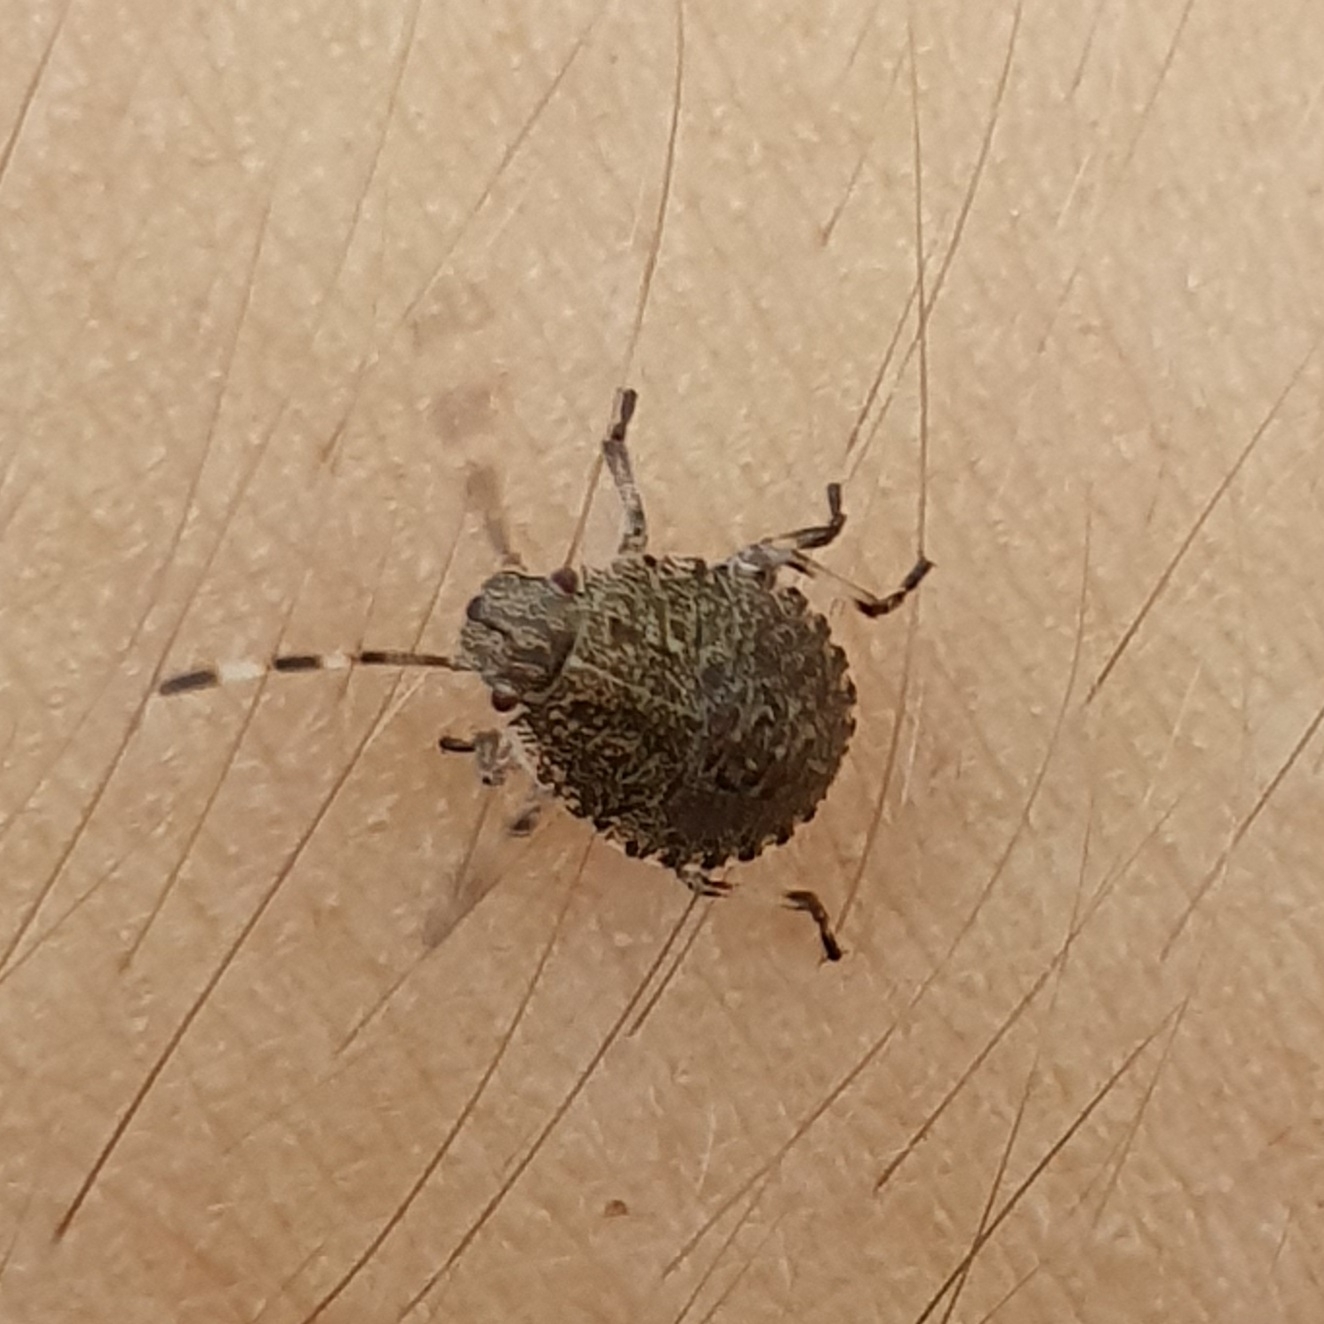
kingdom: Animalia
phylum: Arthropoda
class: Insecta
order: Hemiptera
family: Pentatomidae
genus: Rhaphigaster
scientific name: Rhaphigaster nebulosa
